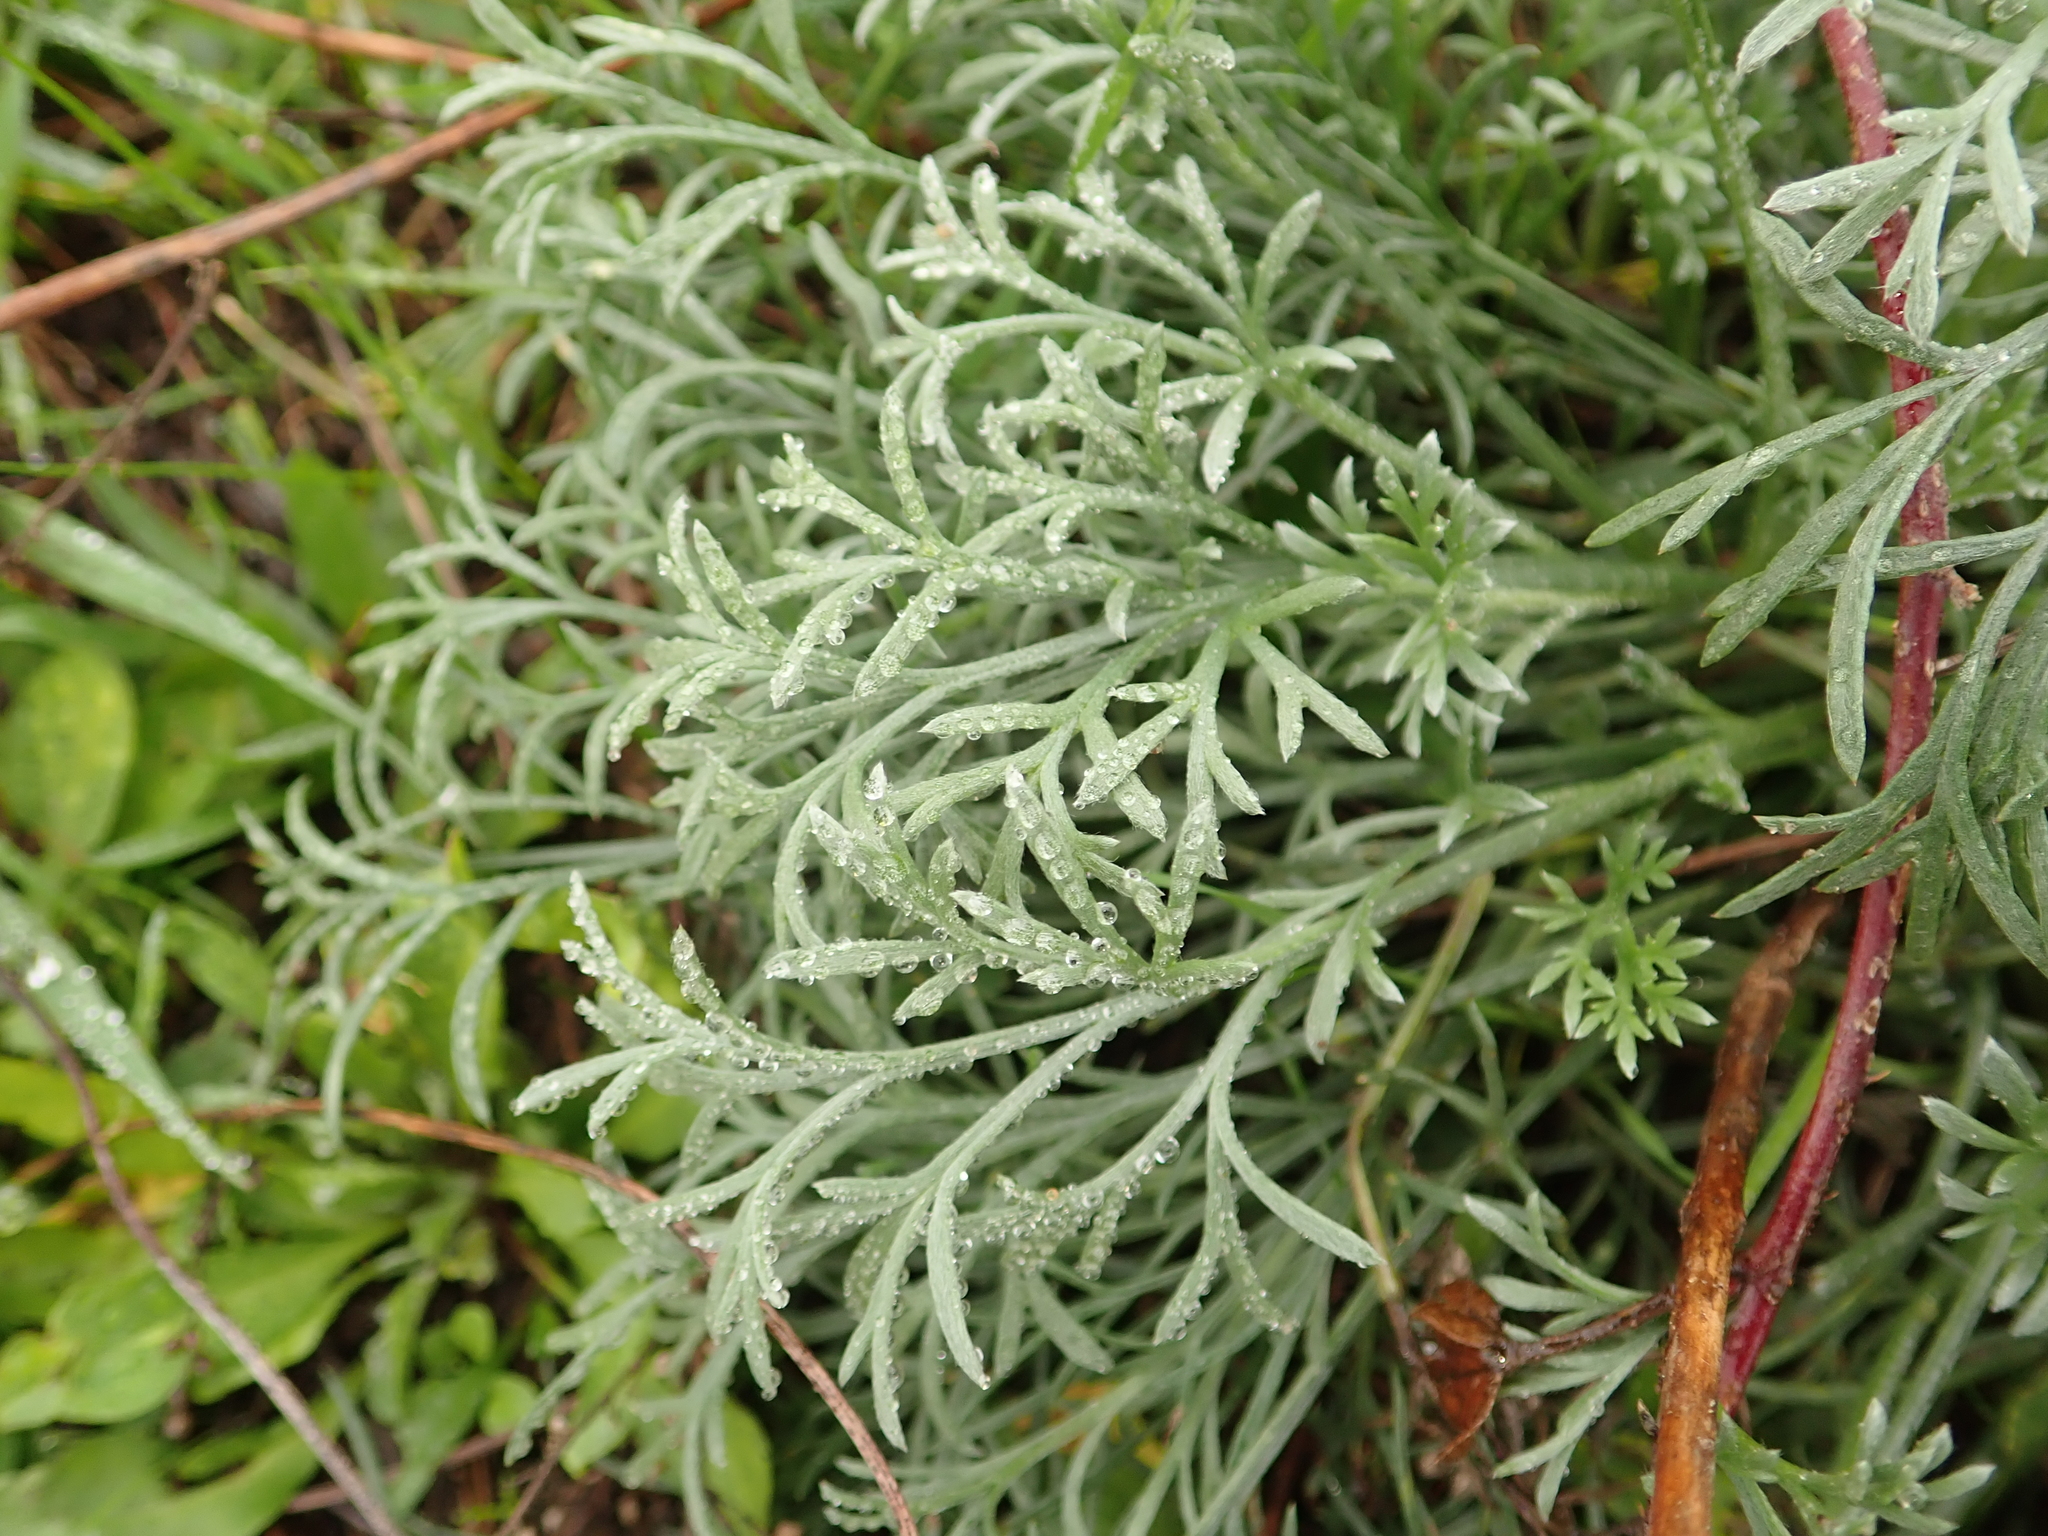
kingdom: Plantae
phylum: Tracheophyta
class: Magnoliopsida
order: Asterales
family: Asteraceae
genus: Artemisia
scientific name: Artemisia austriaca
